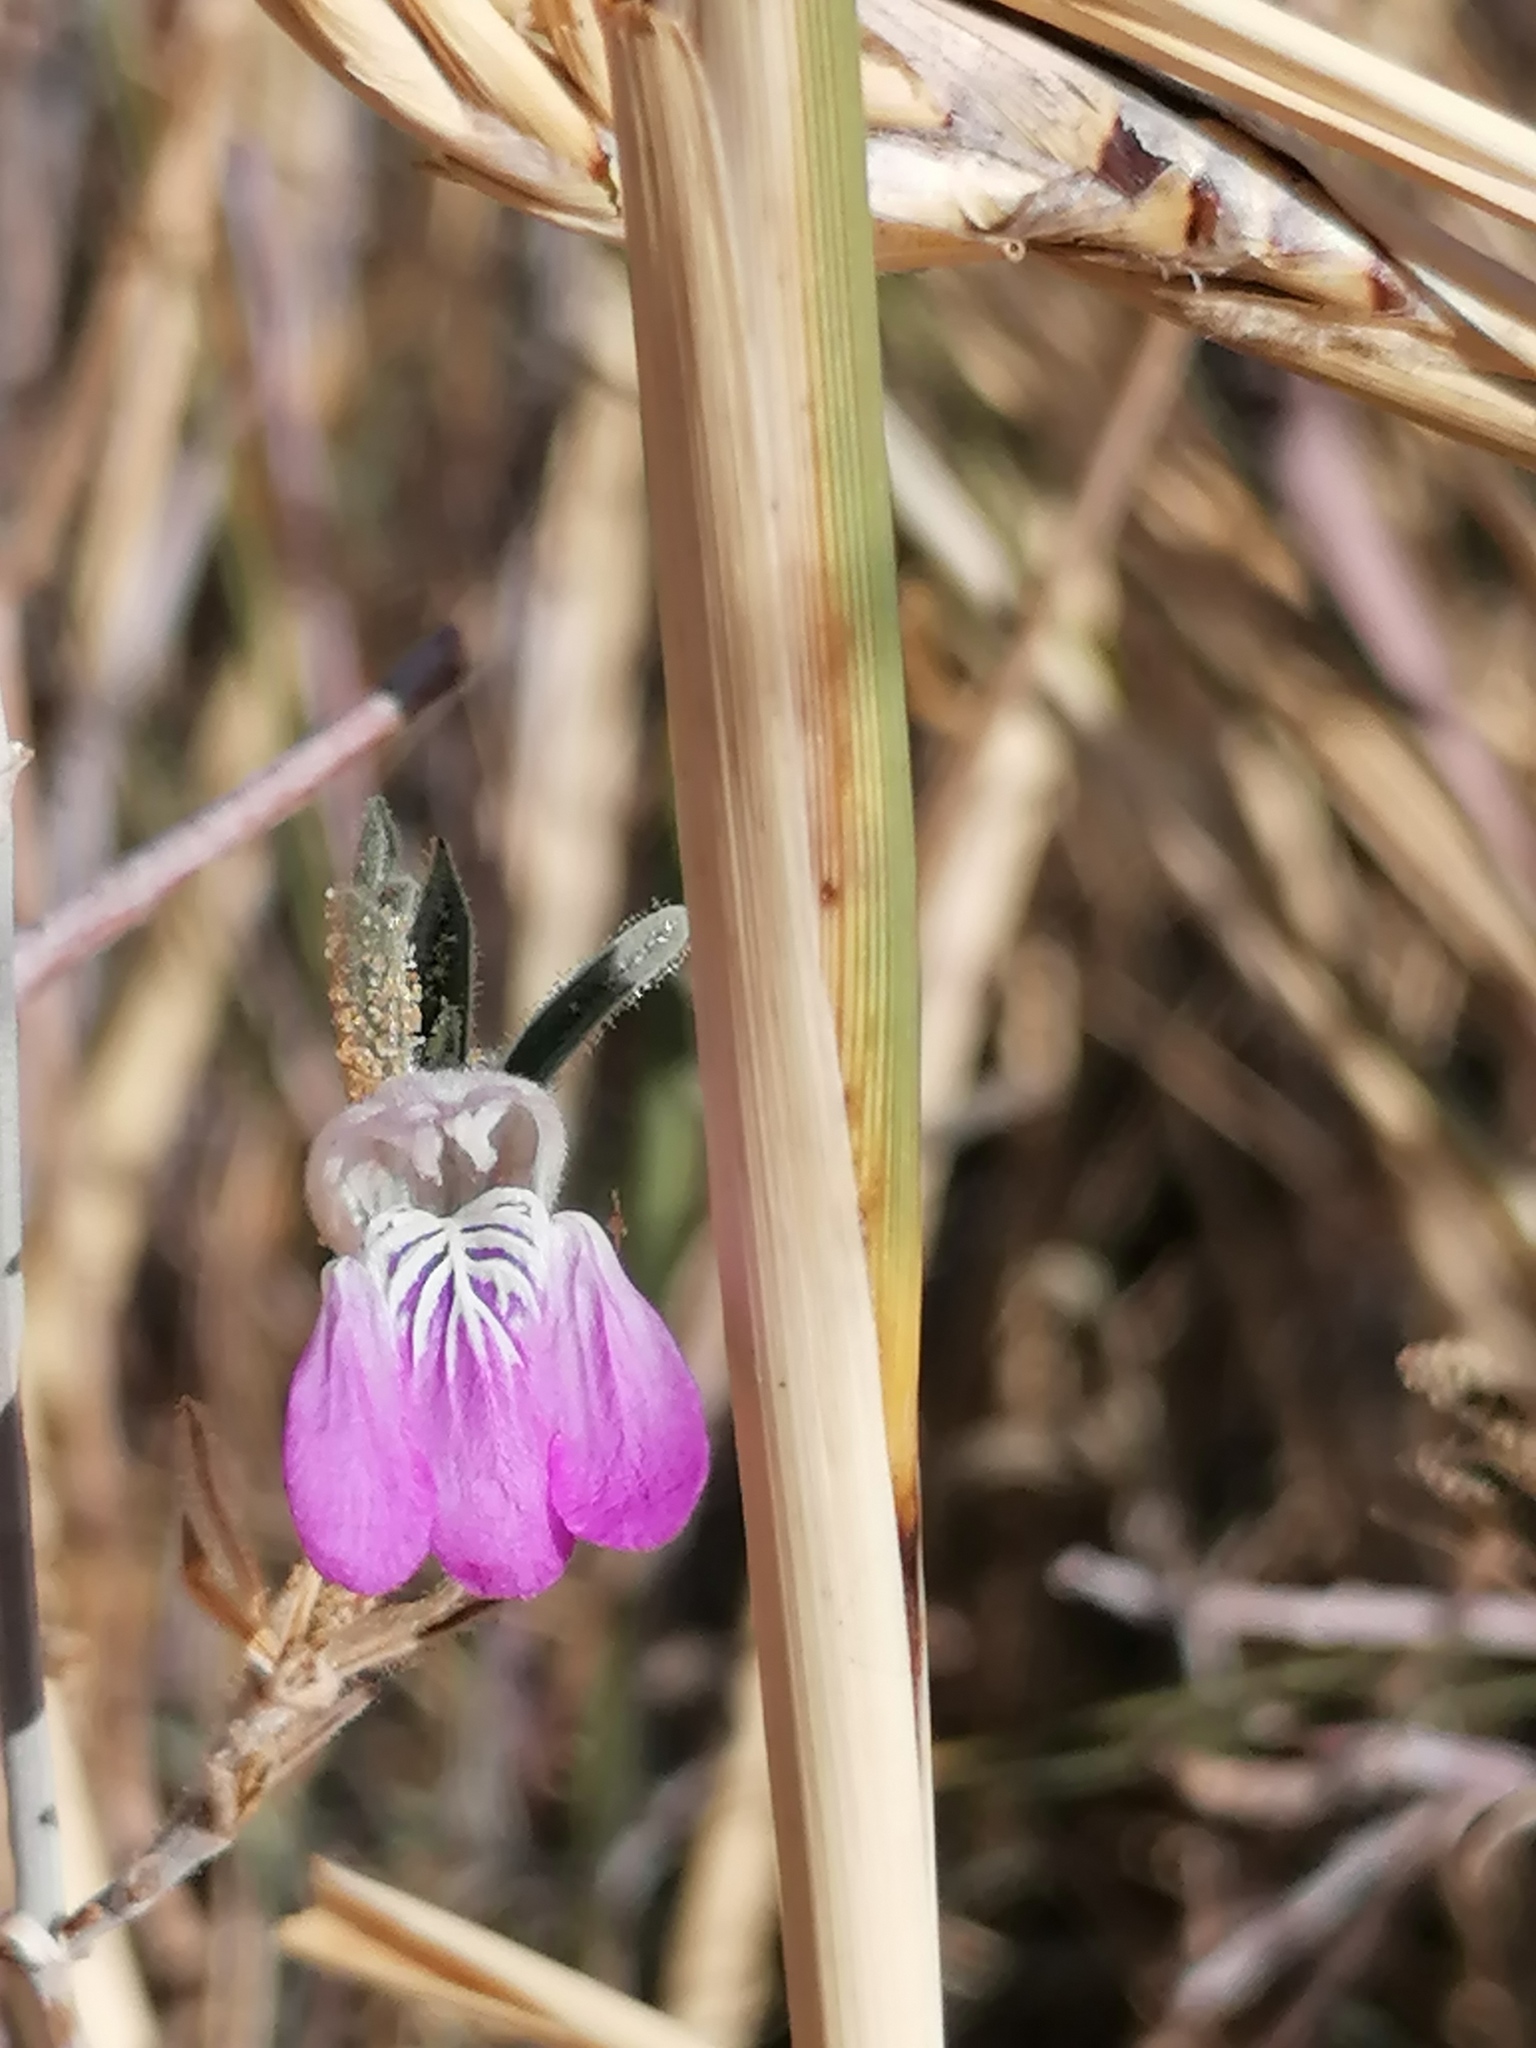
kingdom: Plantae
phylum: Tracheophyta
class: Magnoliopsida
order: Lamiales
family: Acanthaceae
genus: Pogonospermum
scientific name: Pogonospermum
